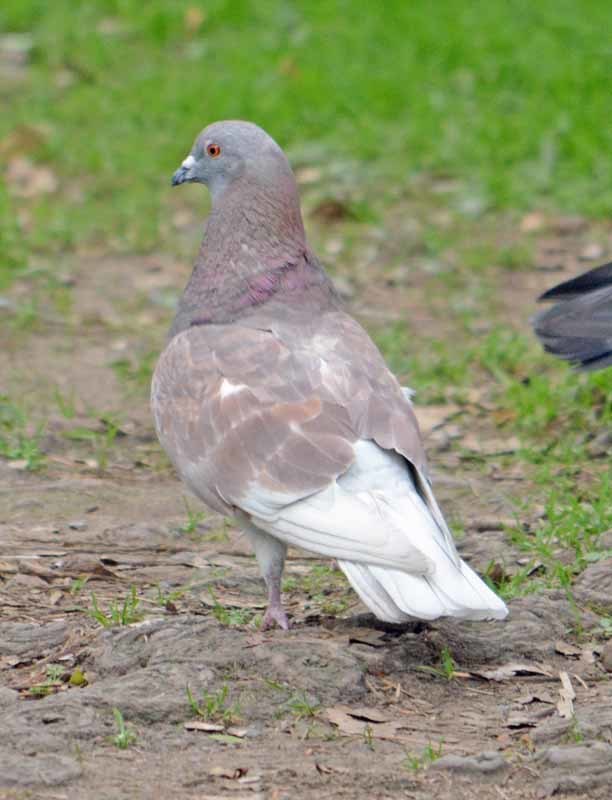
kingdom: Animalia
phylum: Chordata
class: Aves
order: Columbiformes
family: Columbidae
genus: Columba
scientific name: Columba livia
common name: Rock pigeon
